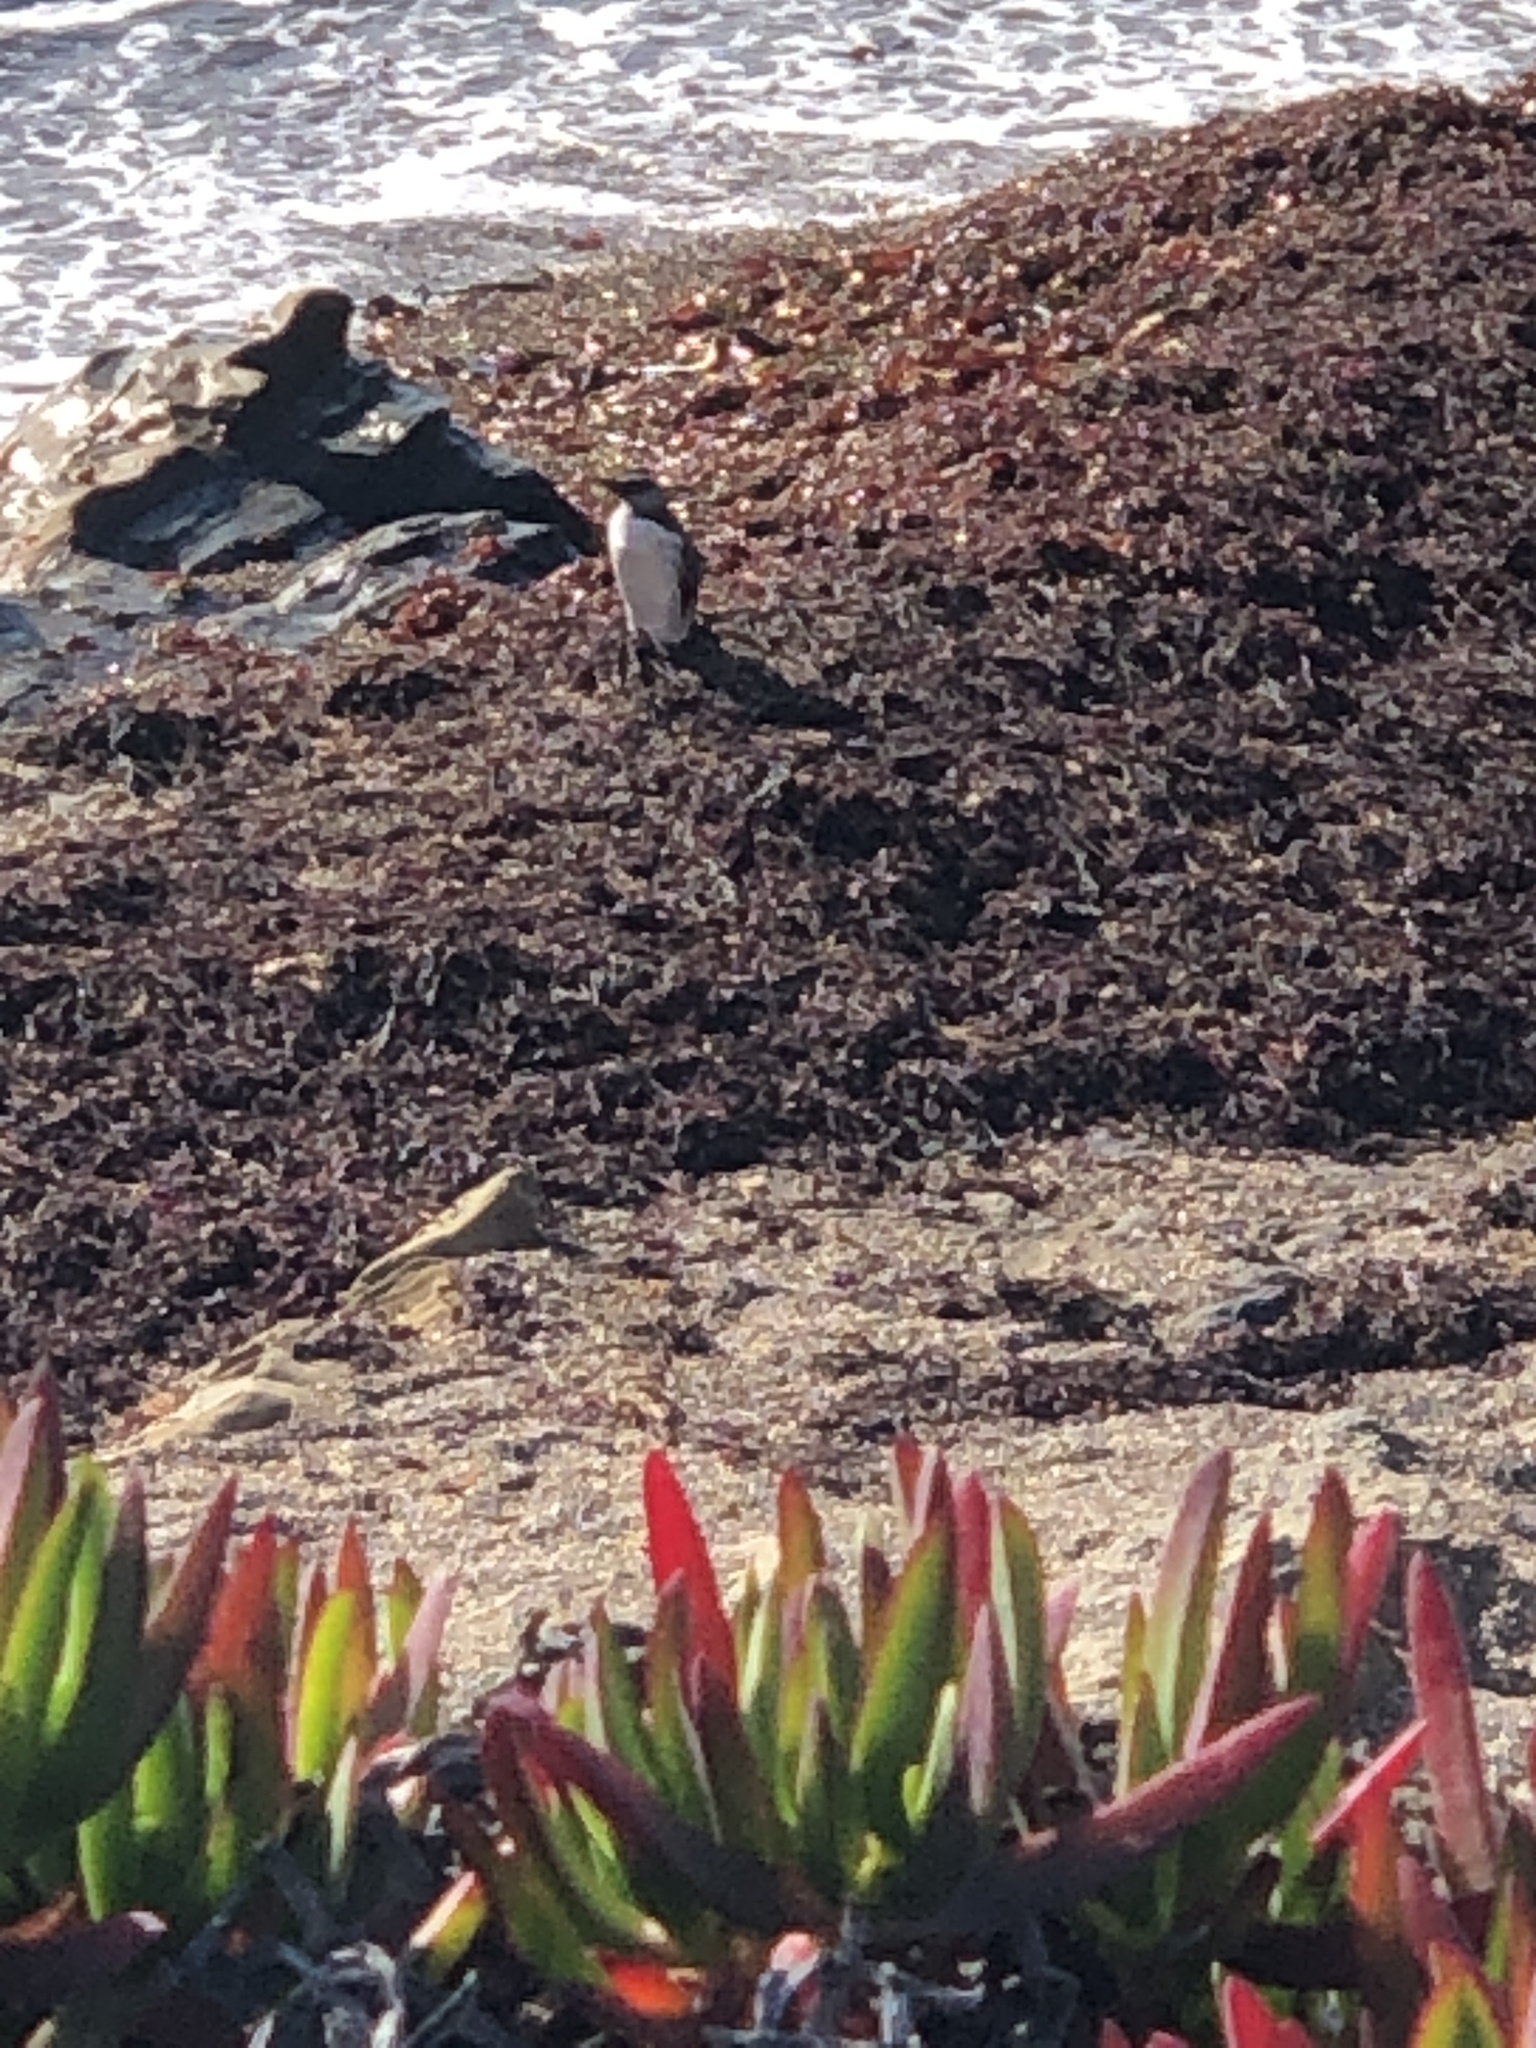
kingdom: Animalia
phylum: Chordata
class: Aves
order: Charadriiformes
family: Alcidae
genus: Uria
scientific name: Uria aalge
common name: Common murre
